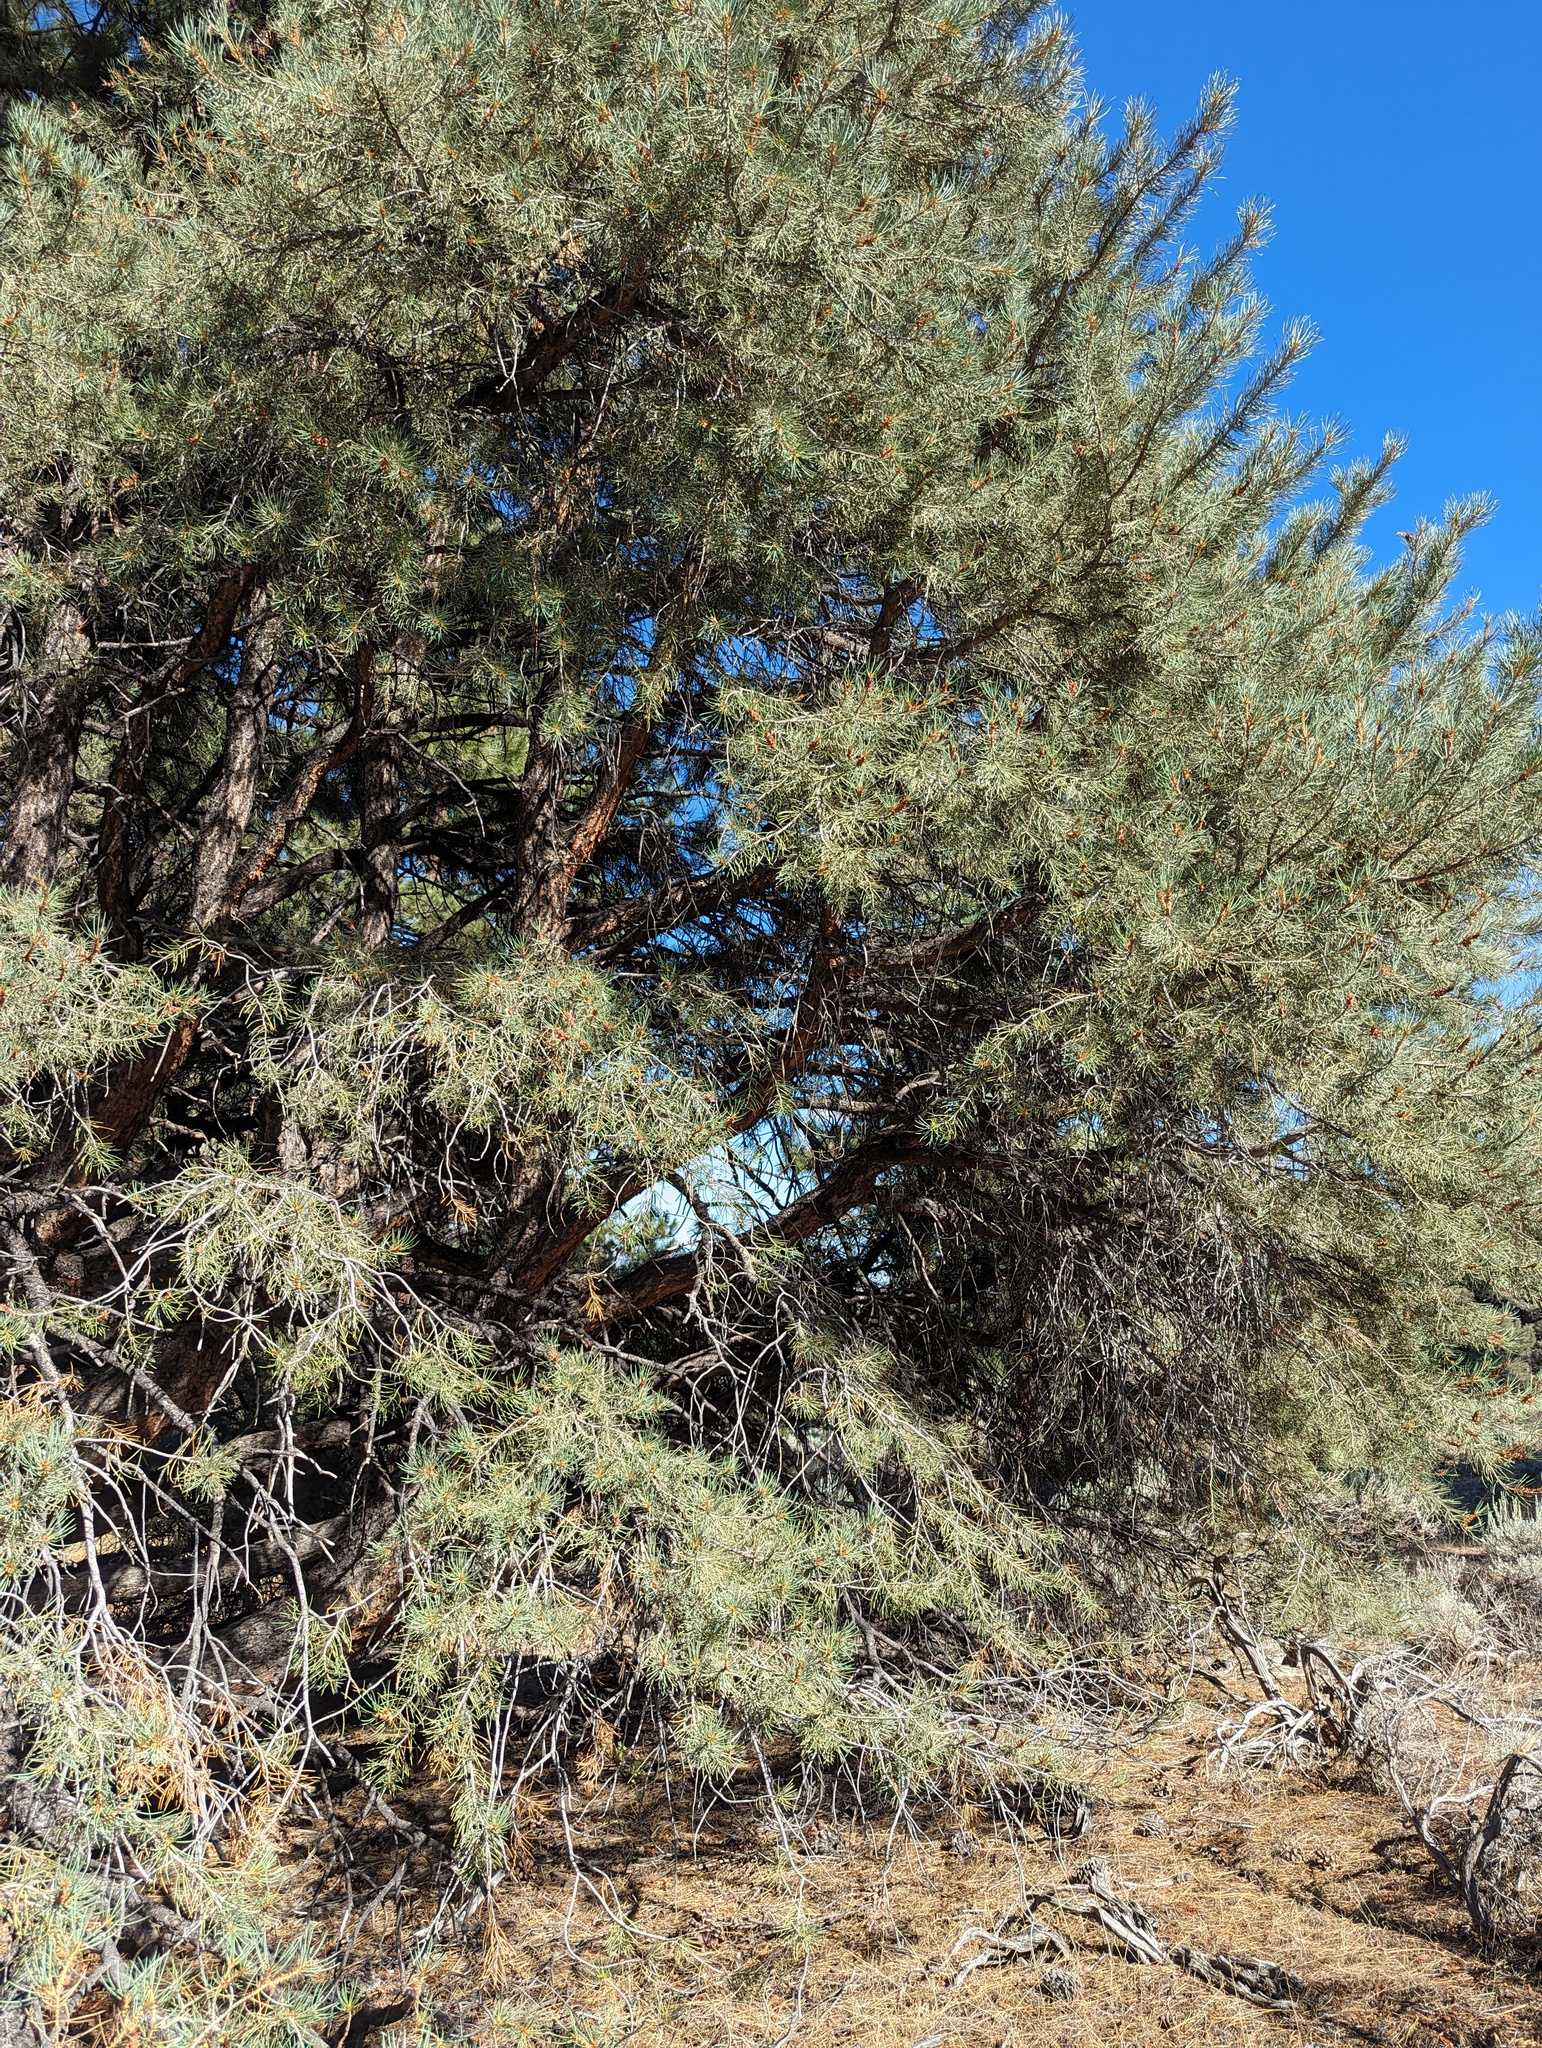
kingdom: Plantae
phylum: Tracheophyta
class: Pinopsida
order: Pinales
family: Pinaceae
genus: Pinus
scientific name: Pinus monophylla
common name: One-leaved nut pine
